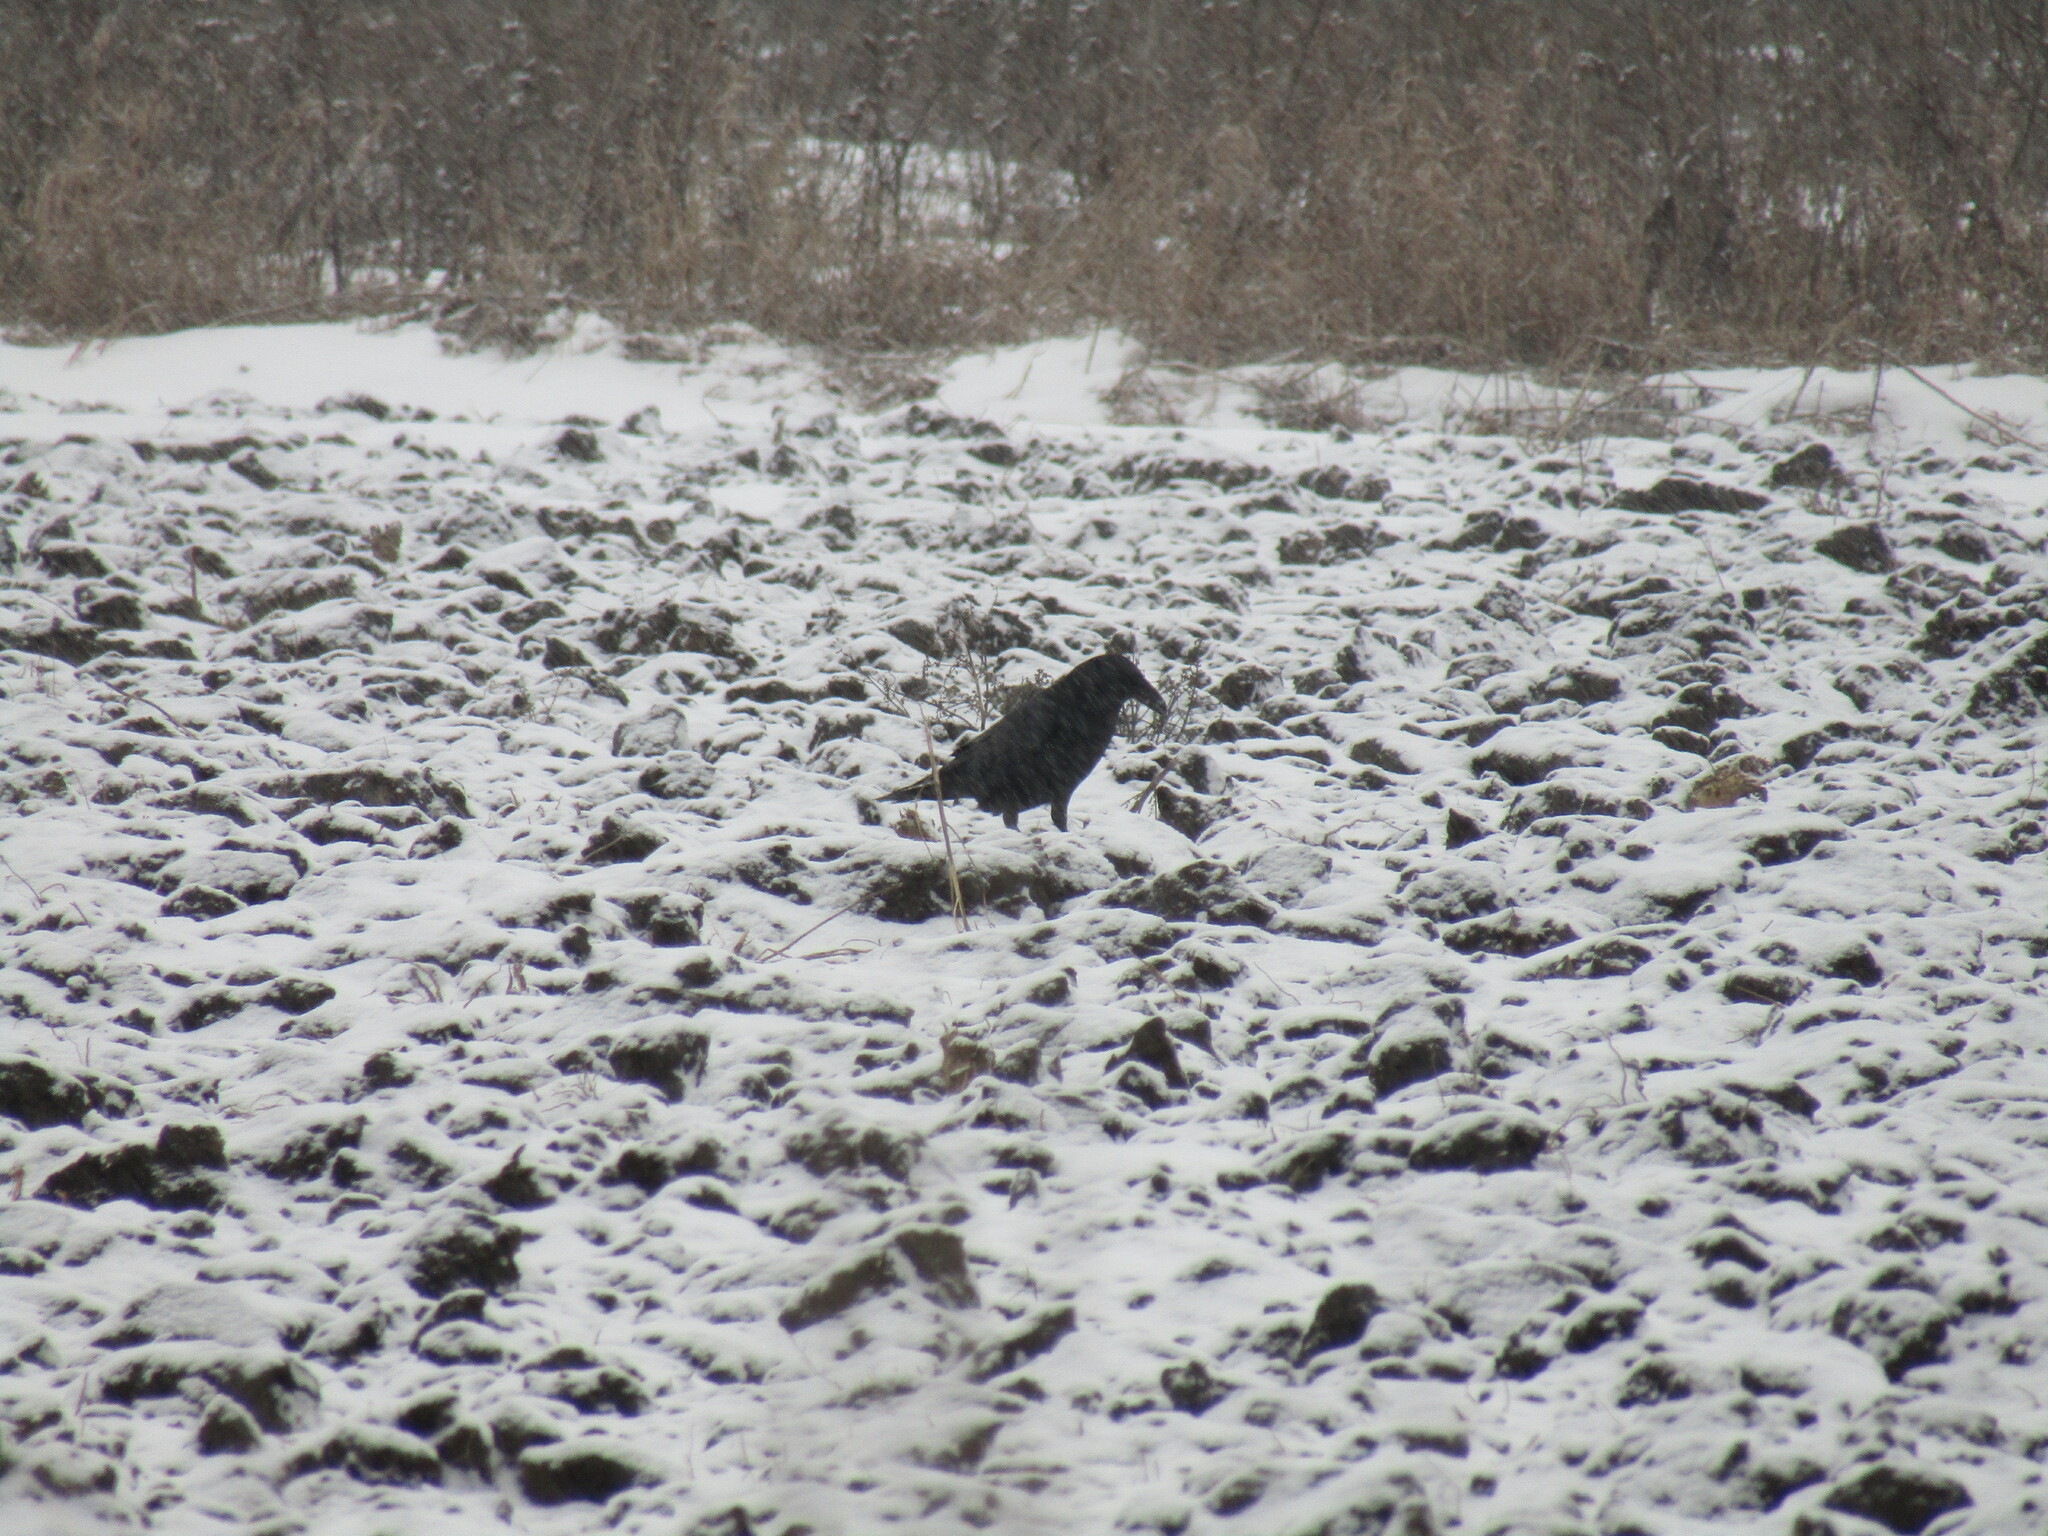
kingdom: Animalia
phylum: Chordata
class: Aves
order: Passeriformes
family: Corvidae
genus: Corvus
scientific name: Corvus corax
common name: Common raven
